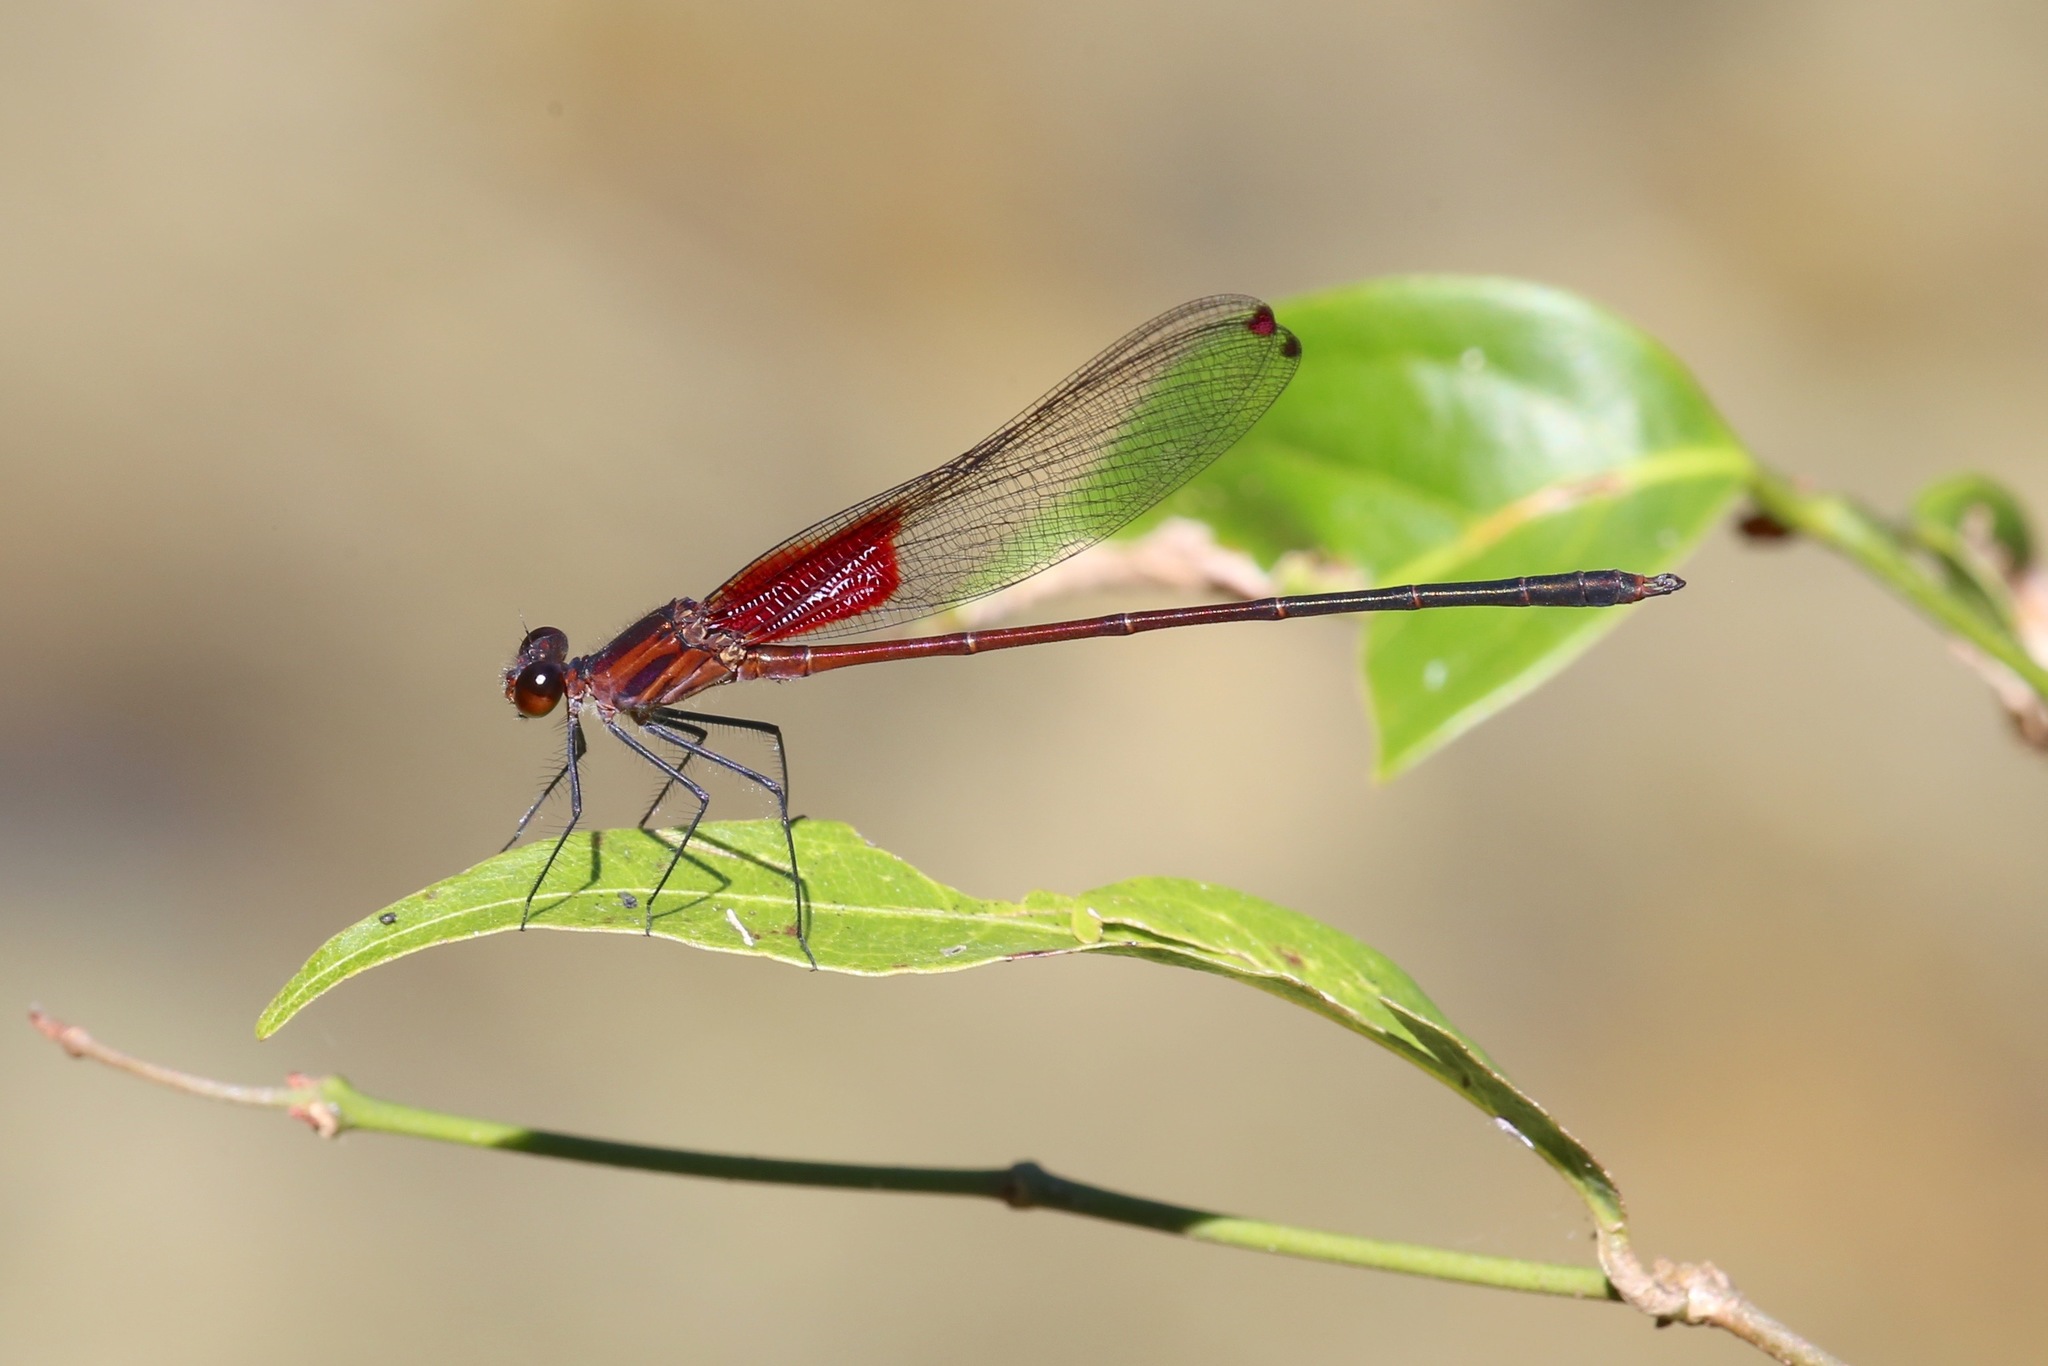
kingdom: Animalia
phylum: Arthropoda
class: Insecta
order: Odonata
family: Calopterygidae
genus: Hetaerina
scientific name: Hetaerina occisa
